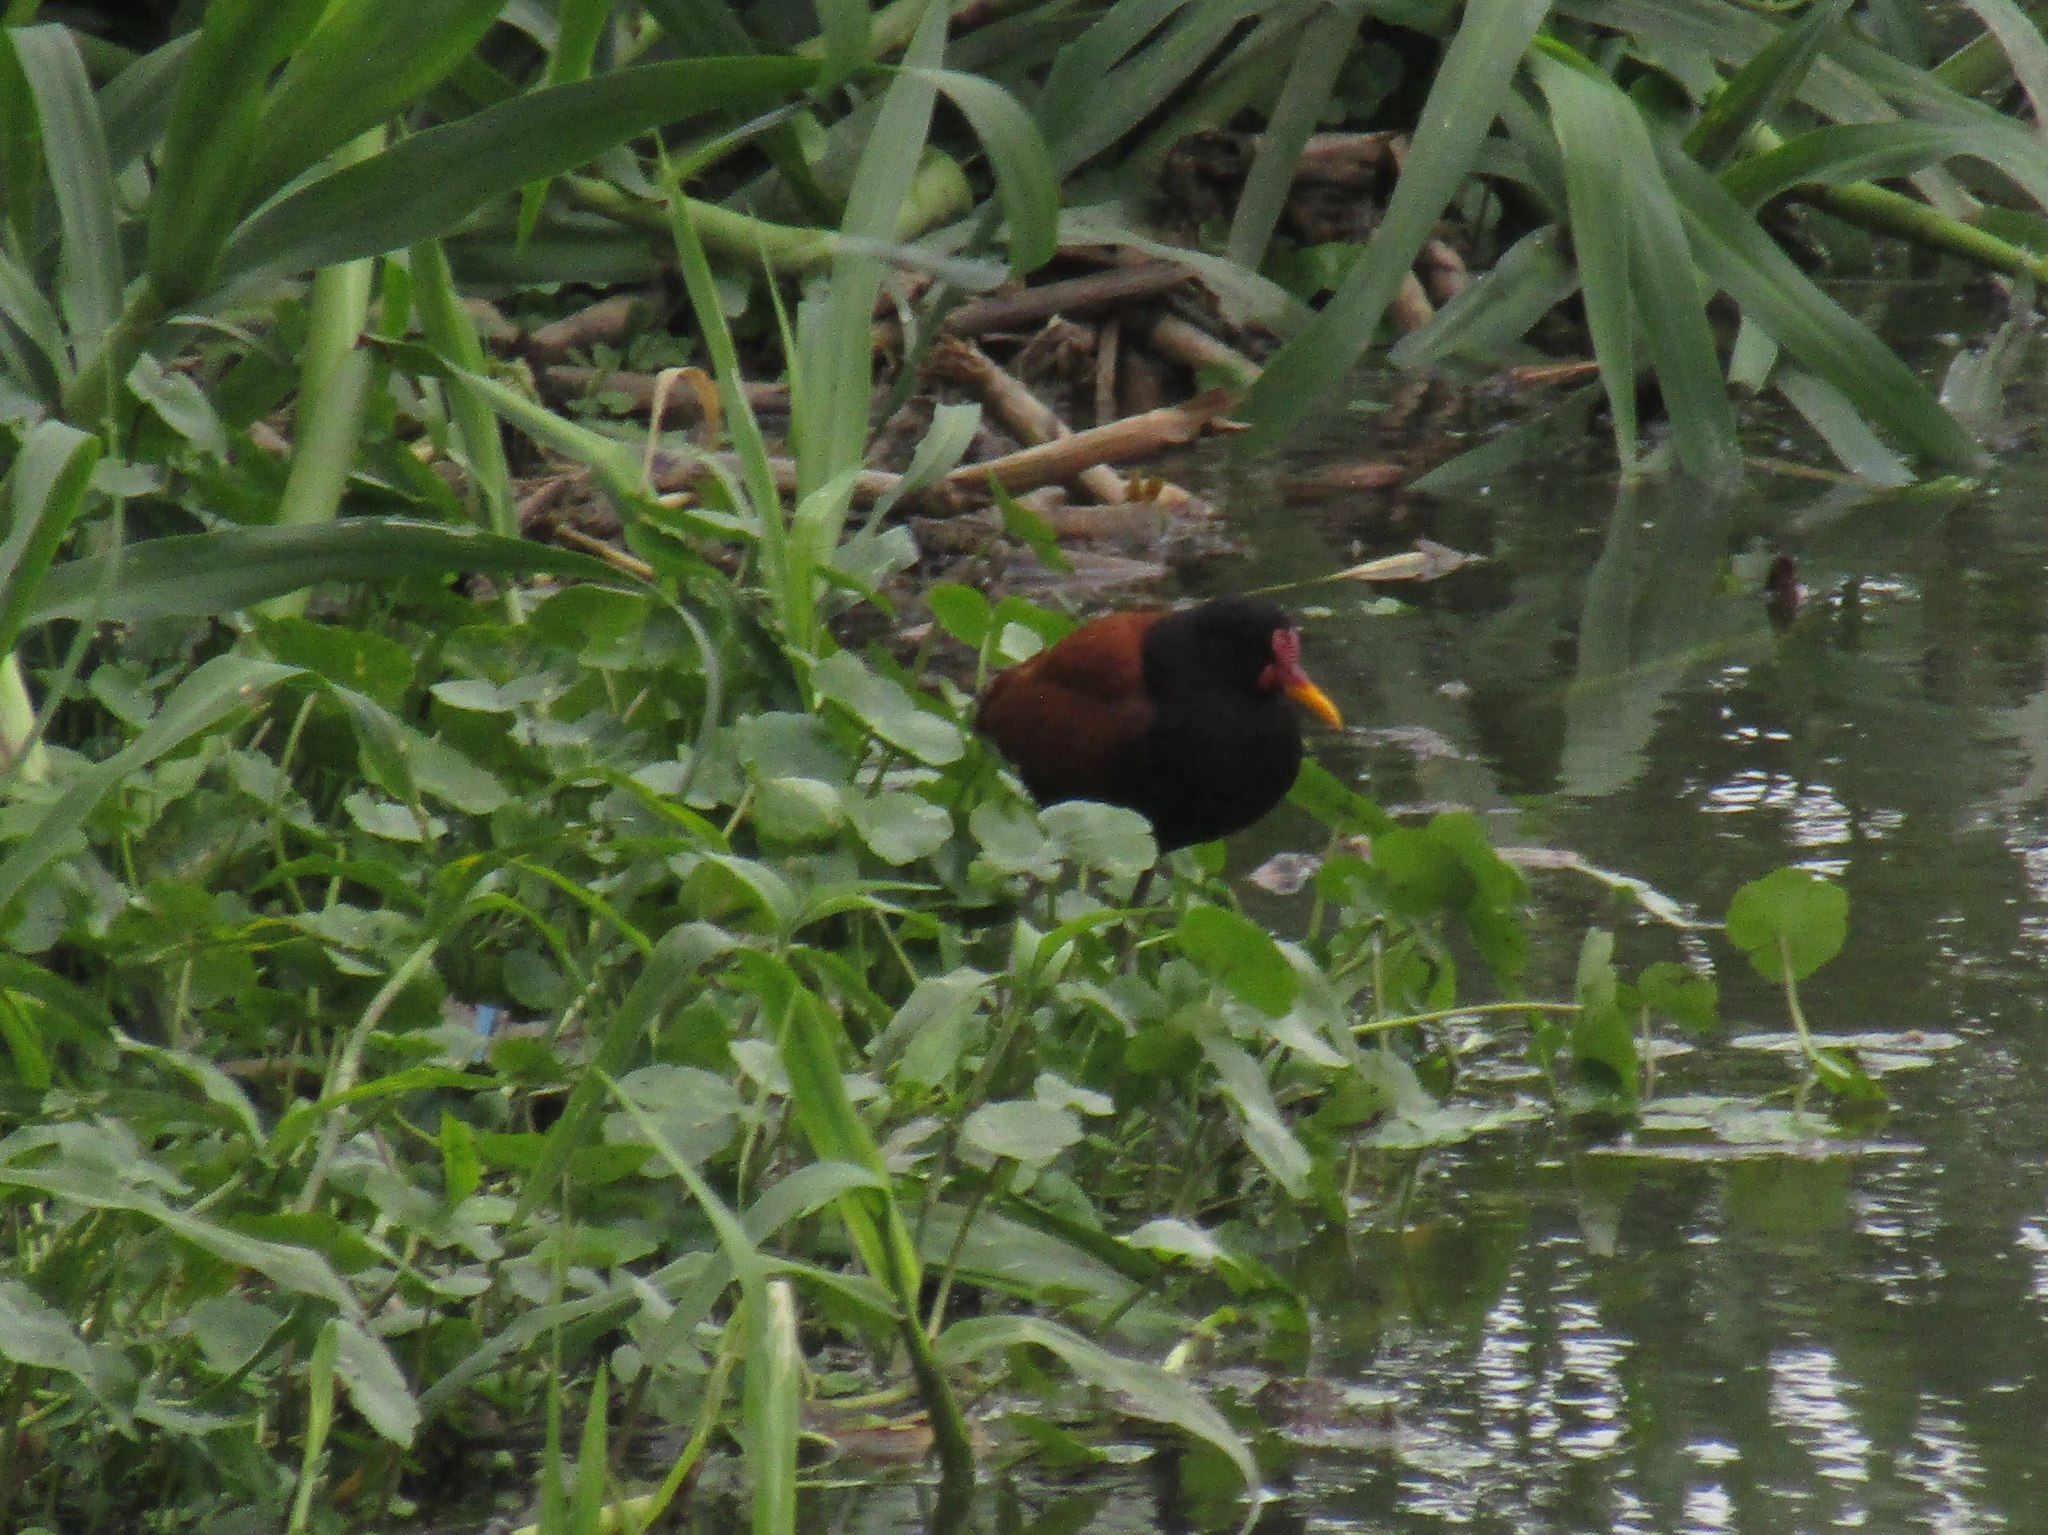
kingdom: Animalia
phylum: Chordata
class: Aves
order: Charadriiformes
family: Jacanidae
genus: Jacana
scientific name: Jacana jacana
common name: Wattled jacana
